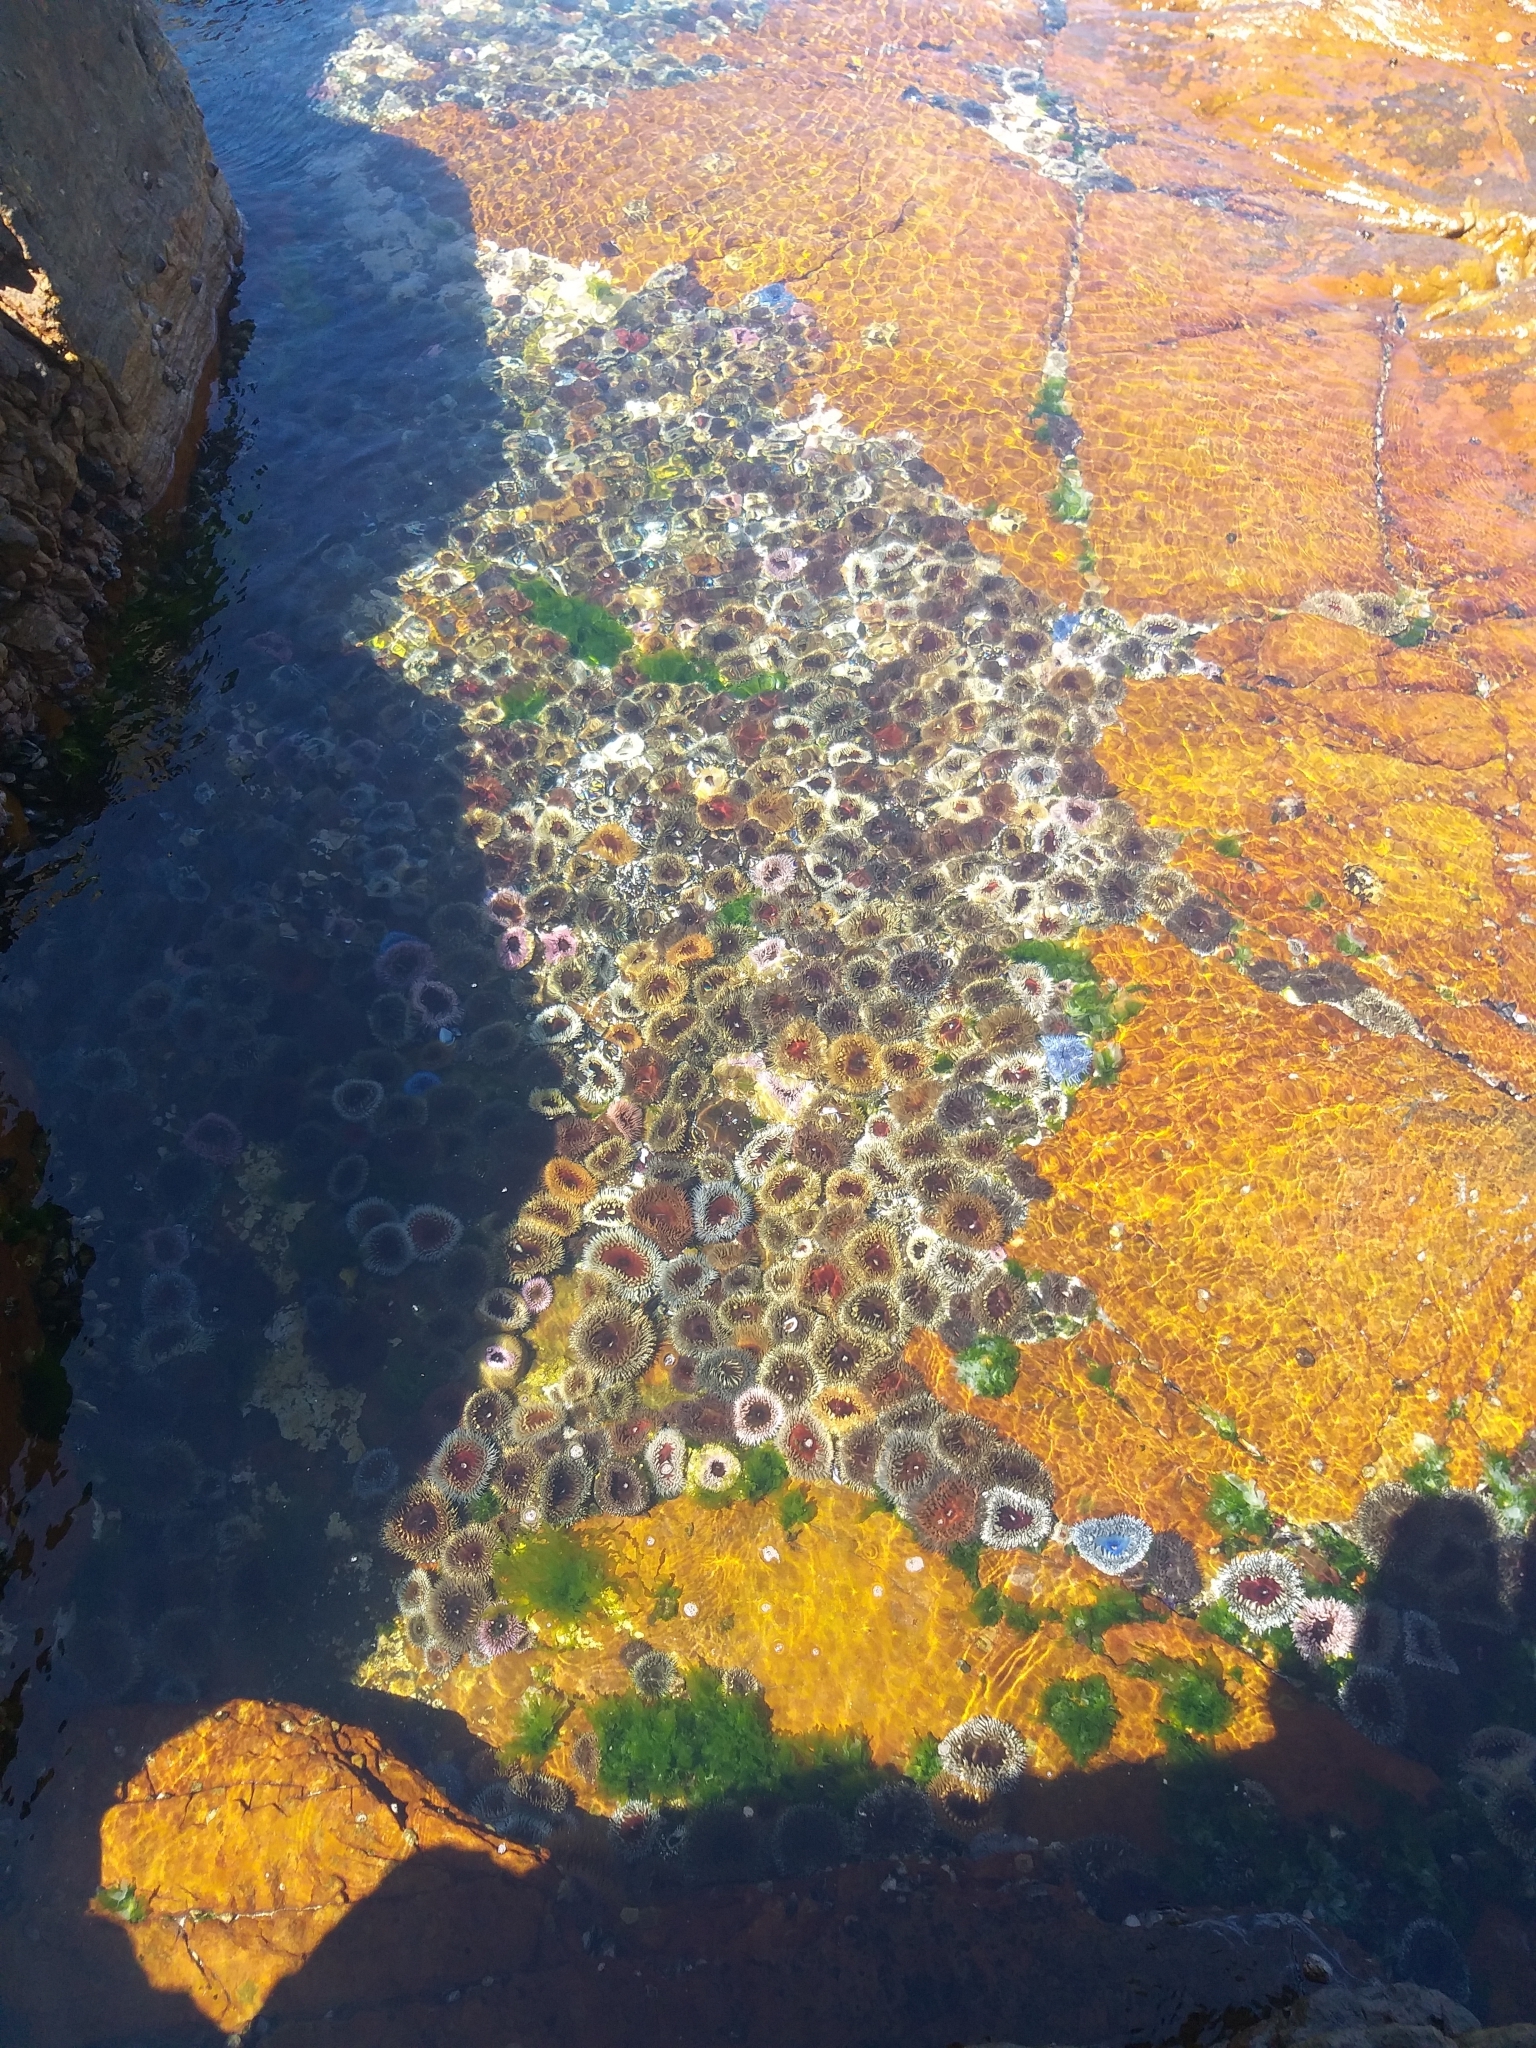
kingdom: Animalia
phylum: Cnidaria
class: Anthozoa
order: Actiniaria
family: Actiniidae
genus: Bunodactis
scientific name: Bunodactis reynaudi
